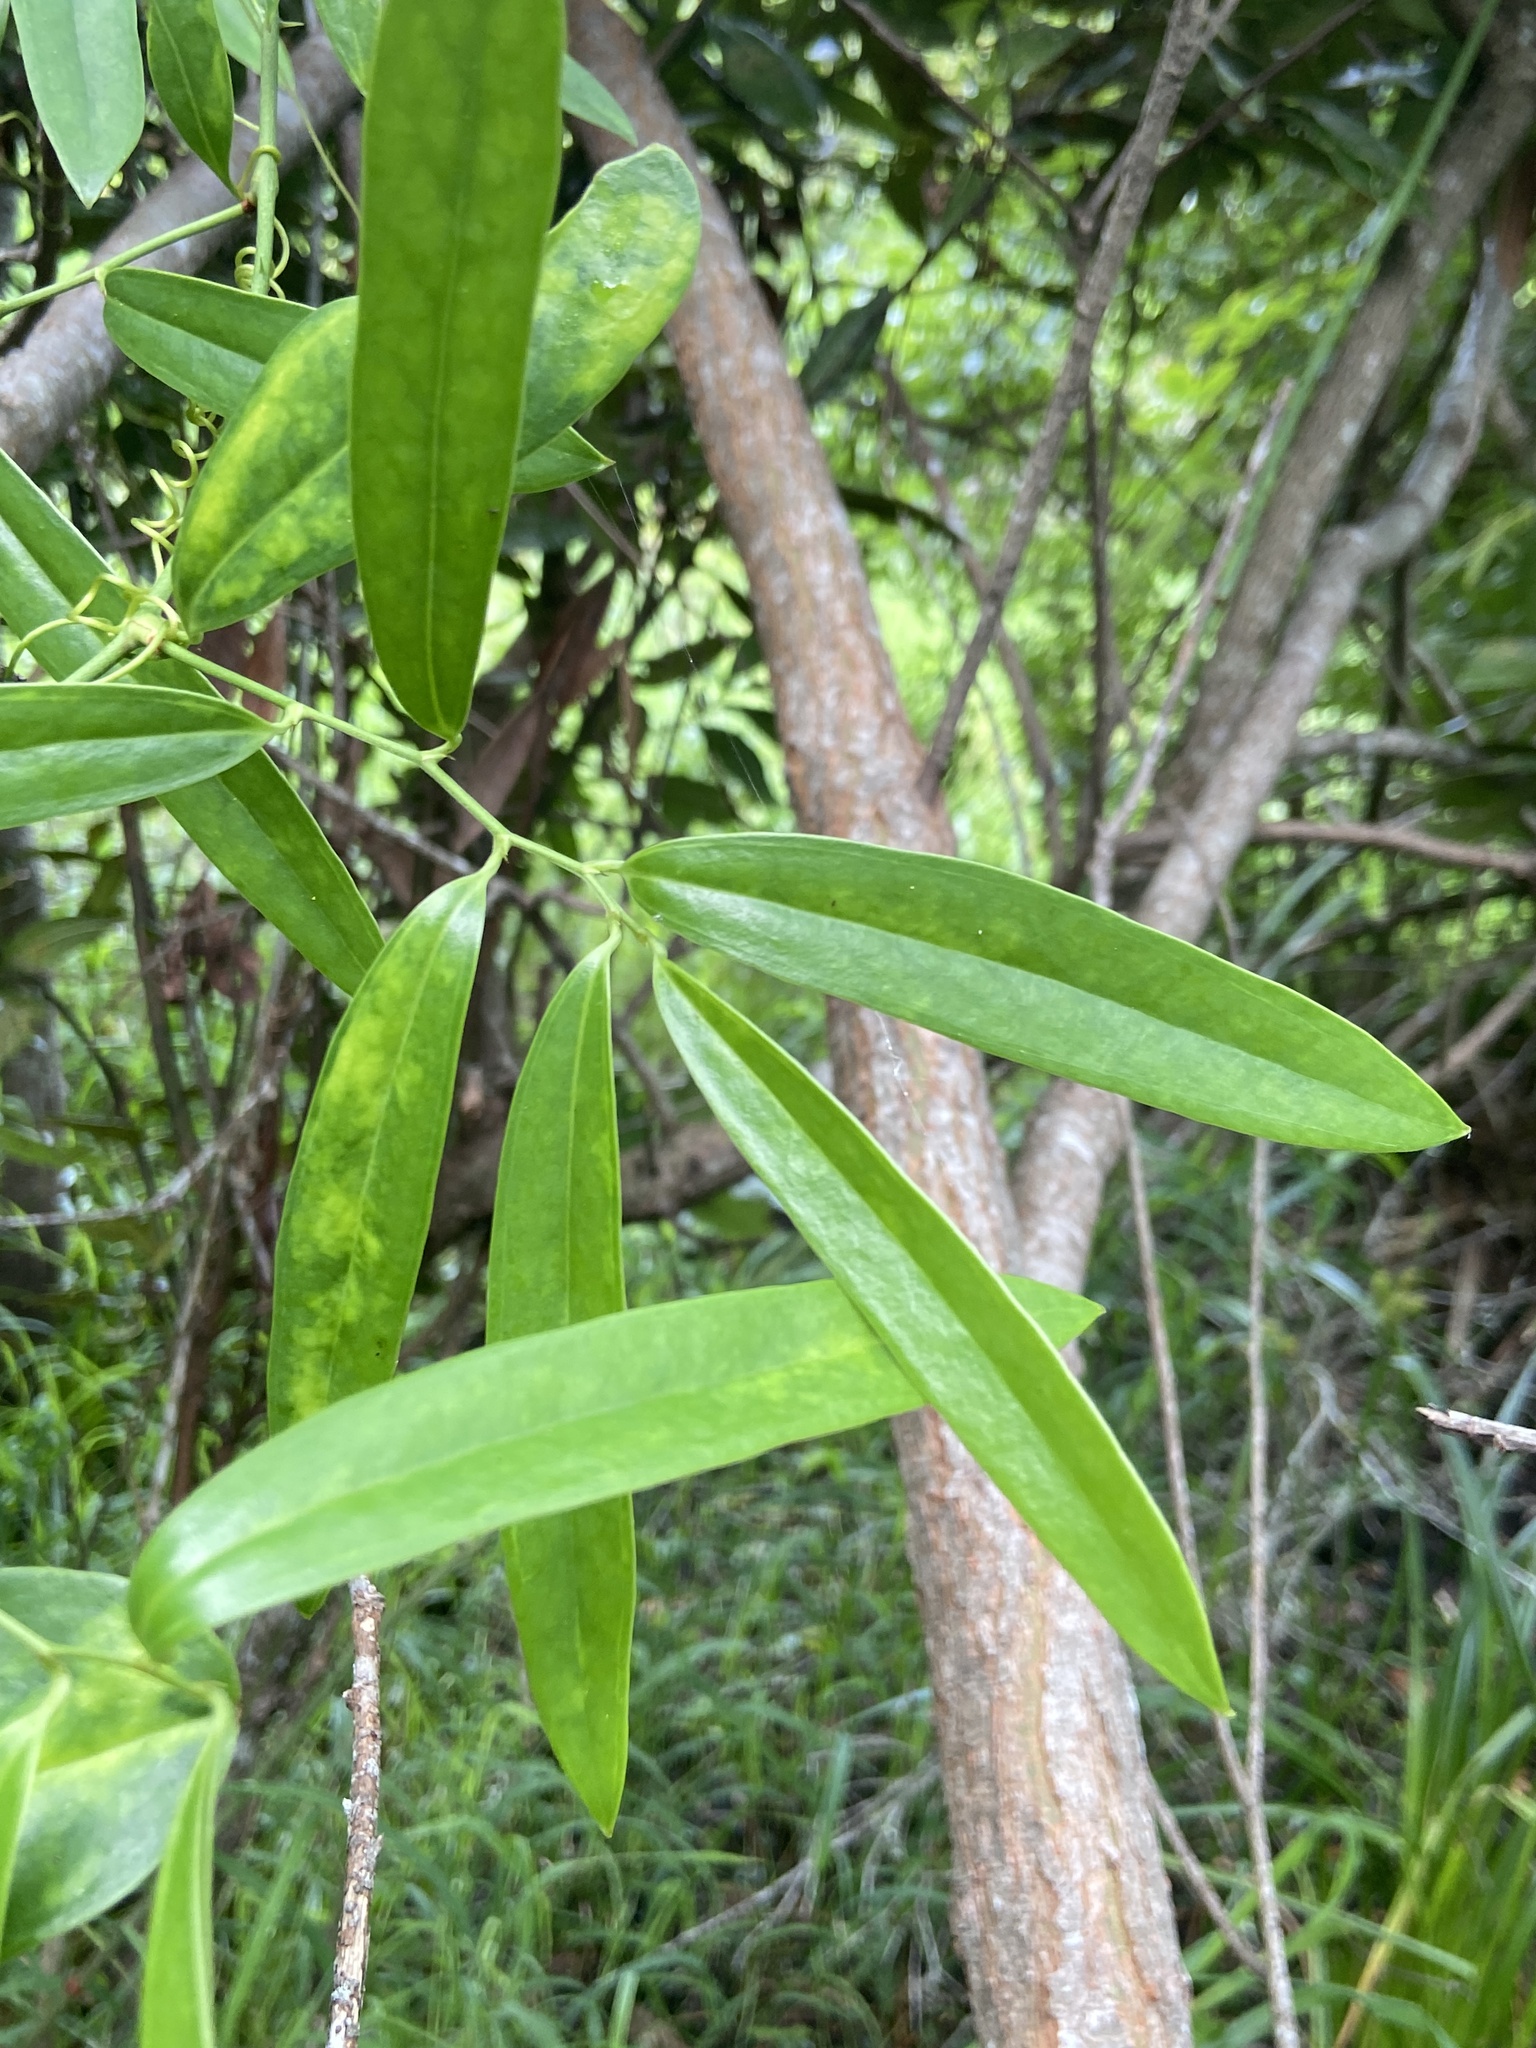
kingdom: Plantae
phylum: Tracheophyta
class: Liliopsida
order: Liliales
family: Smilacaceae
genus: Smilax
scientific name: Smilax laurifolia
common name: Bamboovine
